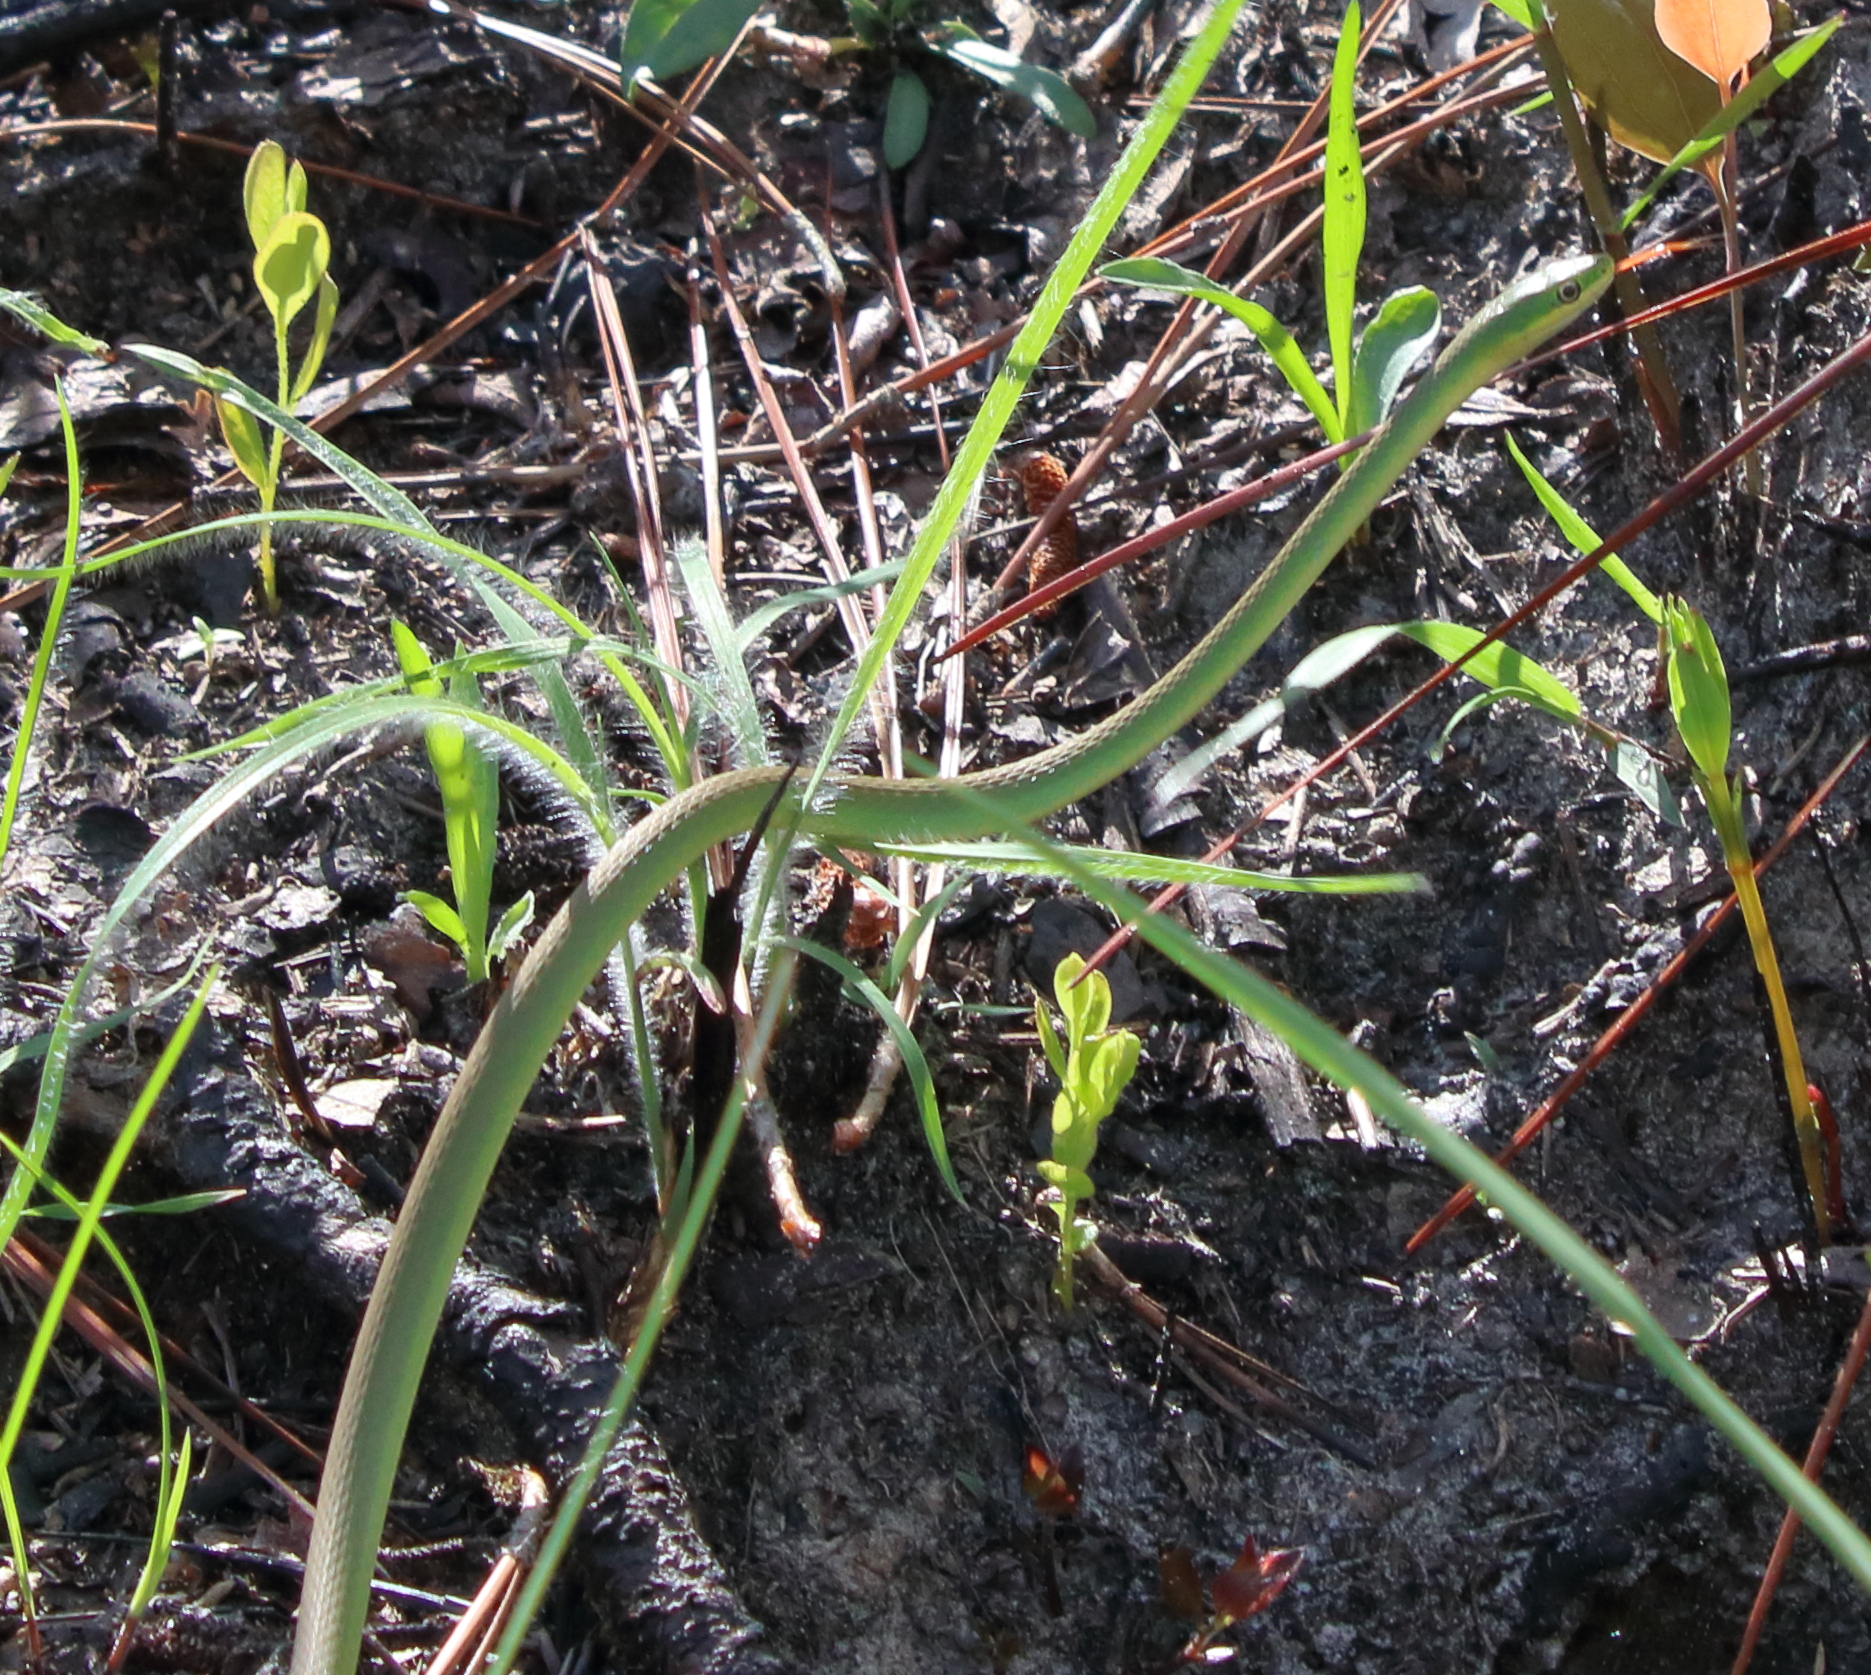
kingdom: Animalia
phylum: Chordata
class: Squamata
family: Colubridae
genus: Opheodrys
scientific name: Opheodrys aestivus
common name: Rough greensnake
